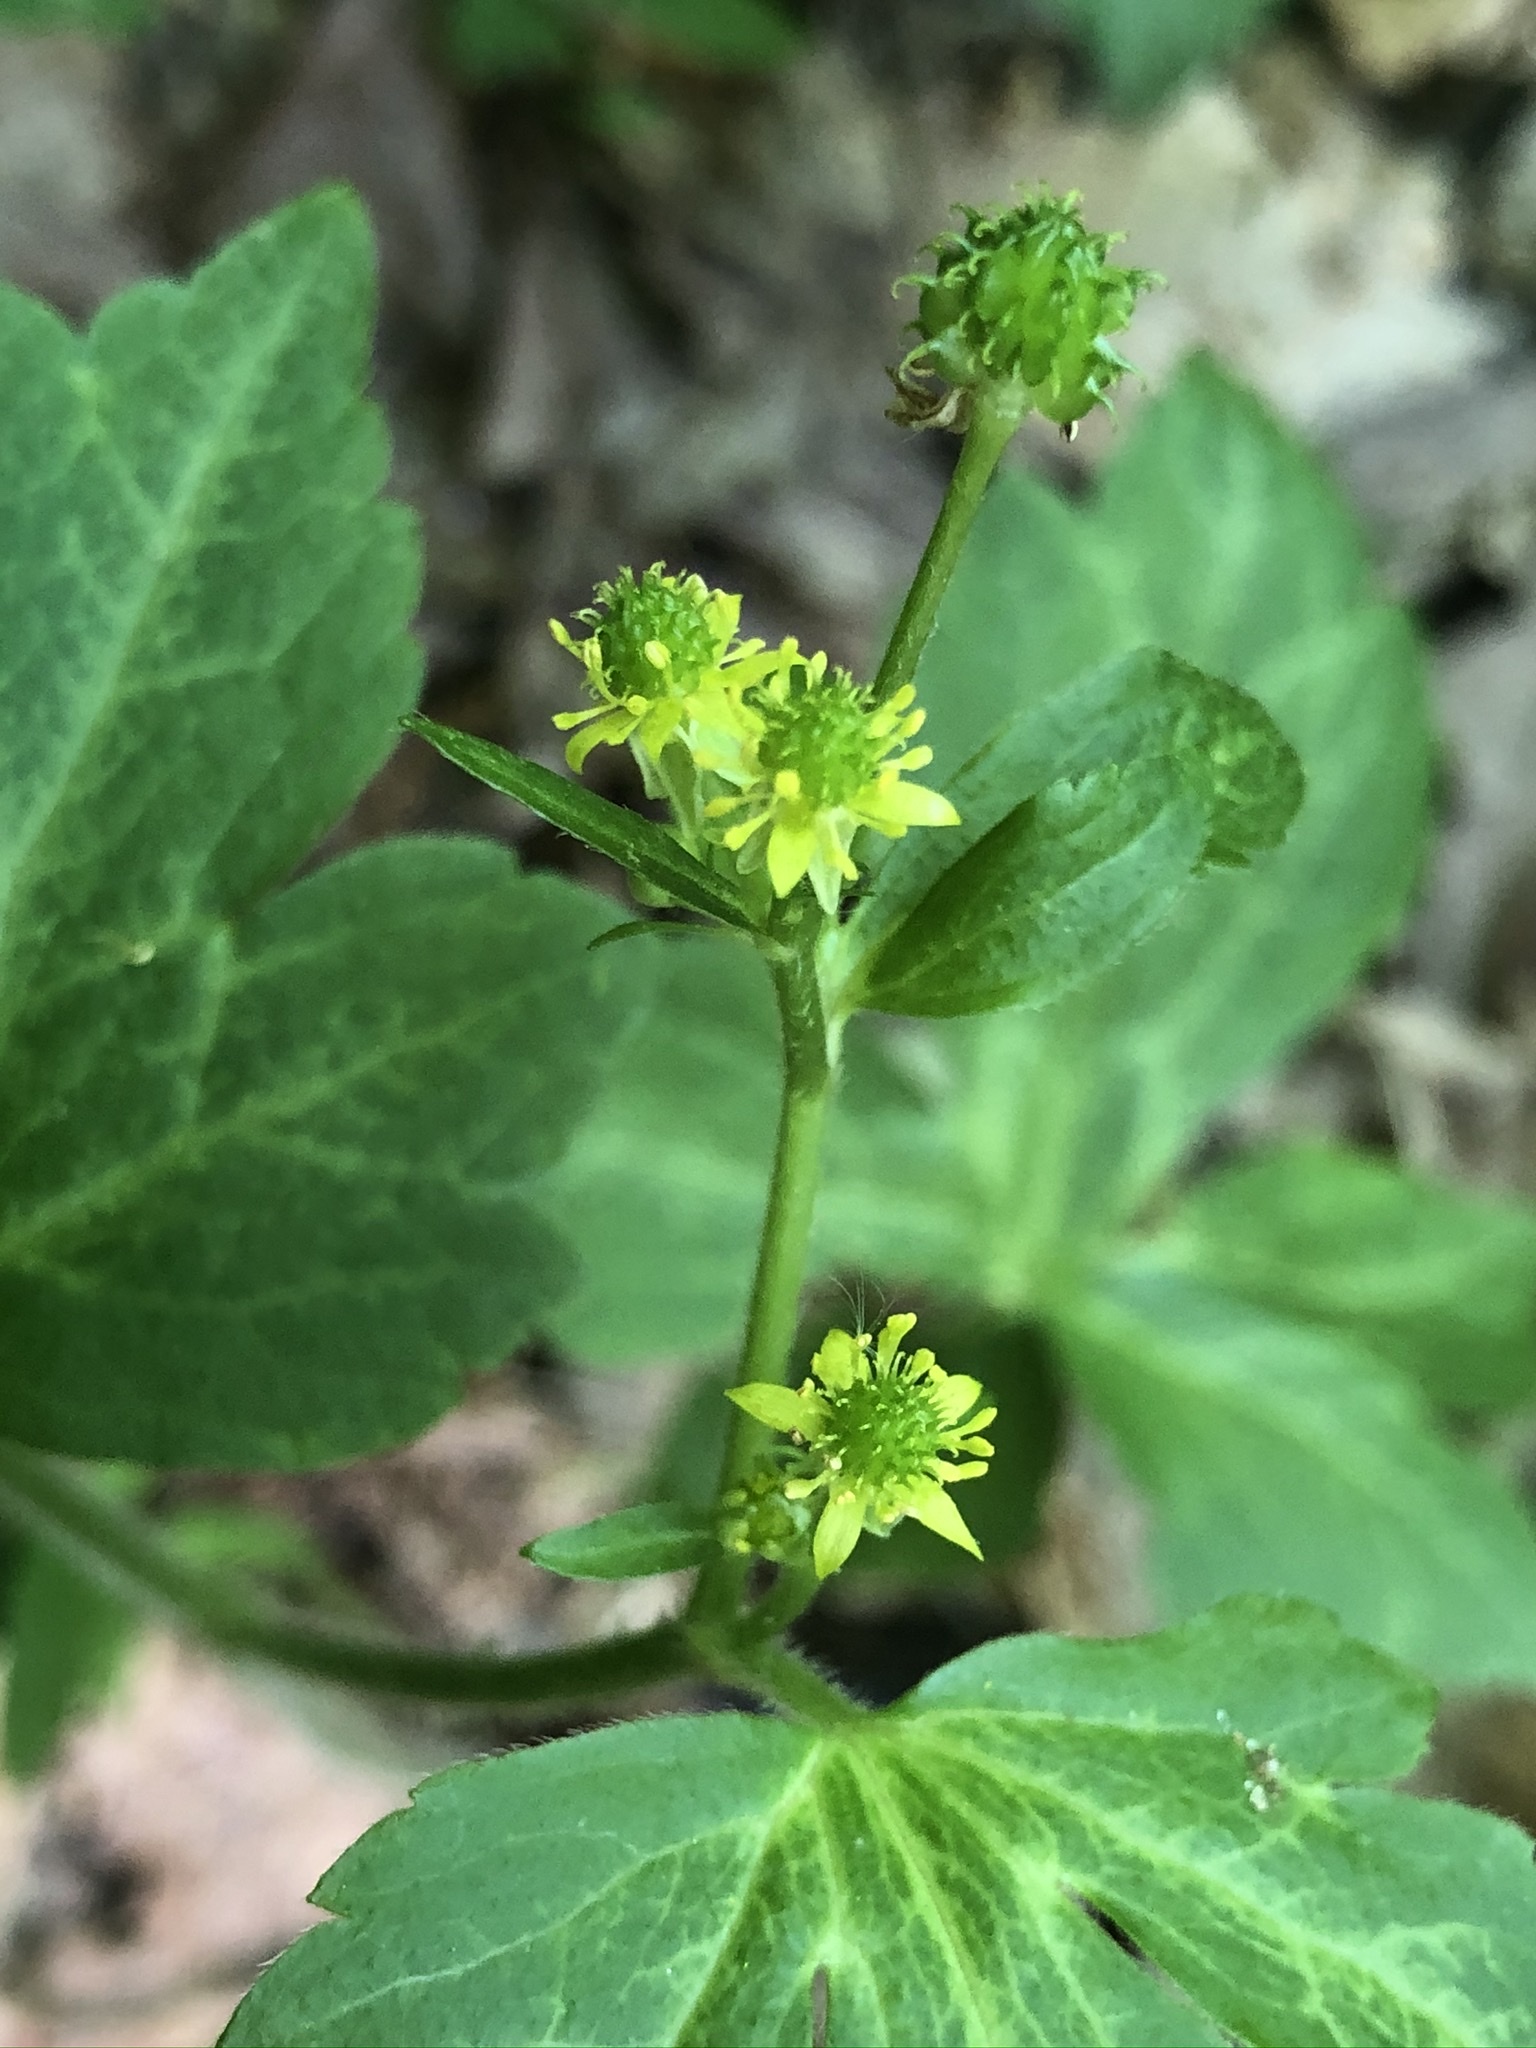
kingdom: Plantae
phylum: Tracheophyta
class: Magnoliopsida
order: Ranunculales
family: Ranunculaceae
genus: Ranunculus
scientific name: Ranunculus recurvatus
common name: Blisterwort
